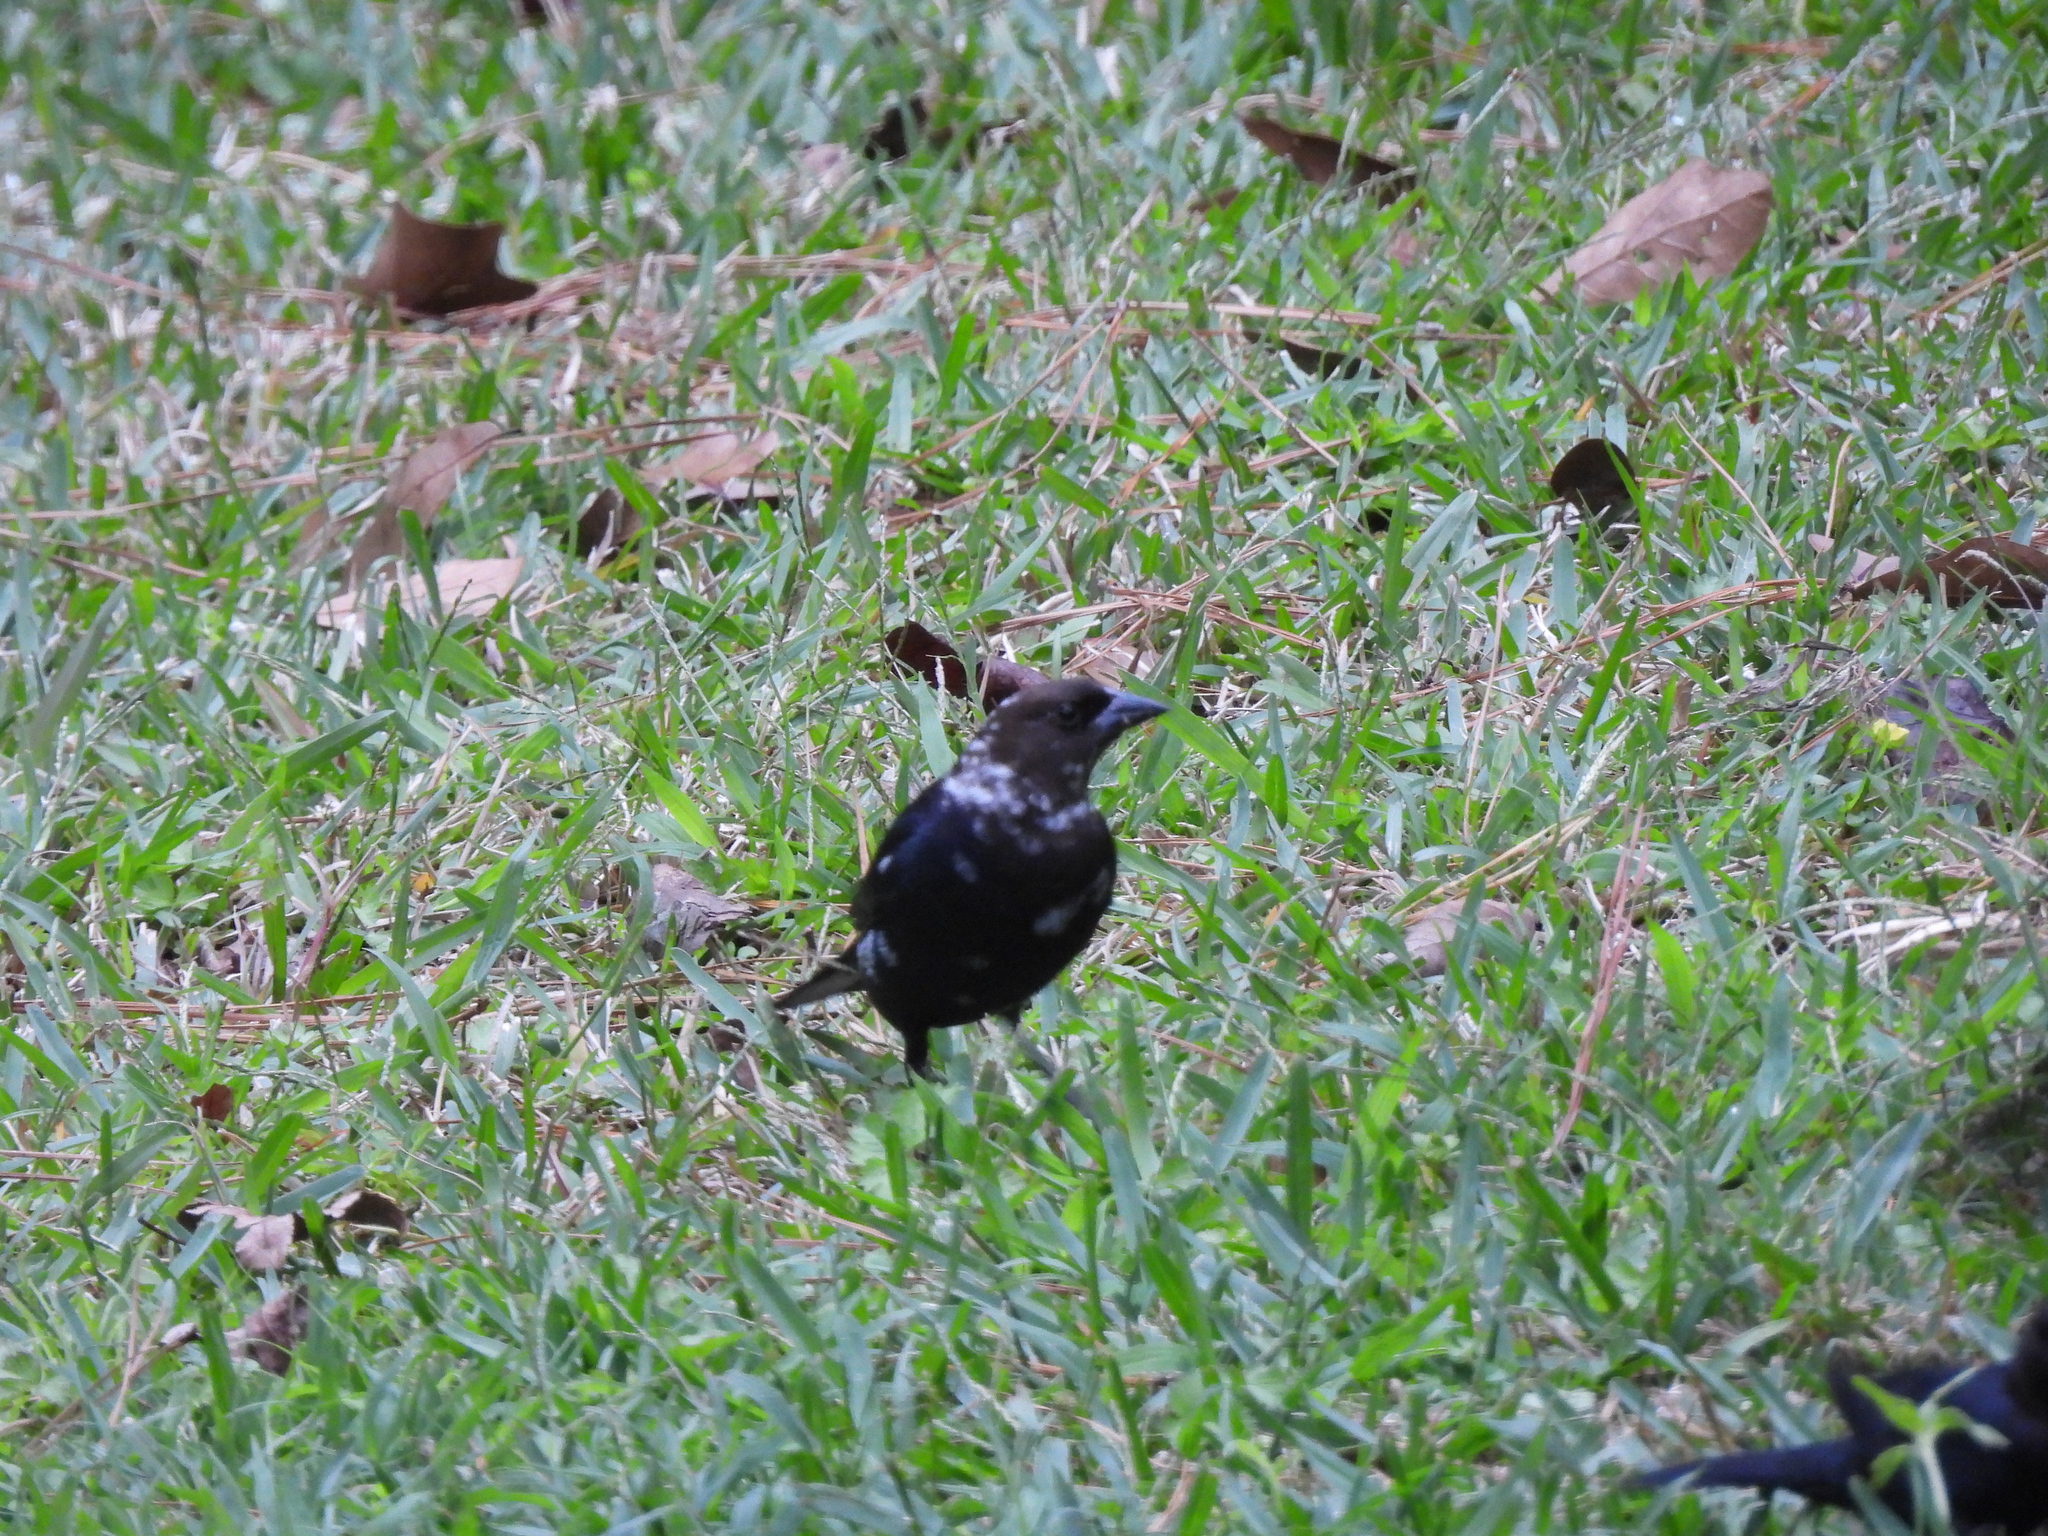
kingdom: Animalia
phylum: Chordata
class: Aves
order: Passeriformes
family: Icteridae
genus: Molothrus
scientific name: Molothrus ater
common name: Brown-headed cowbird
